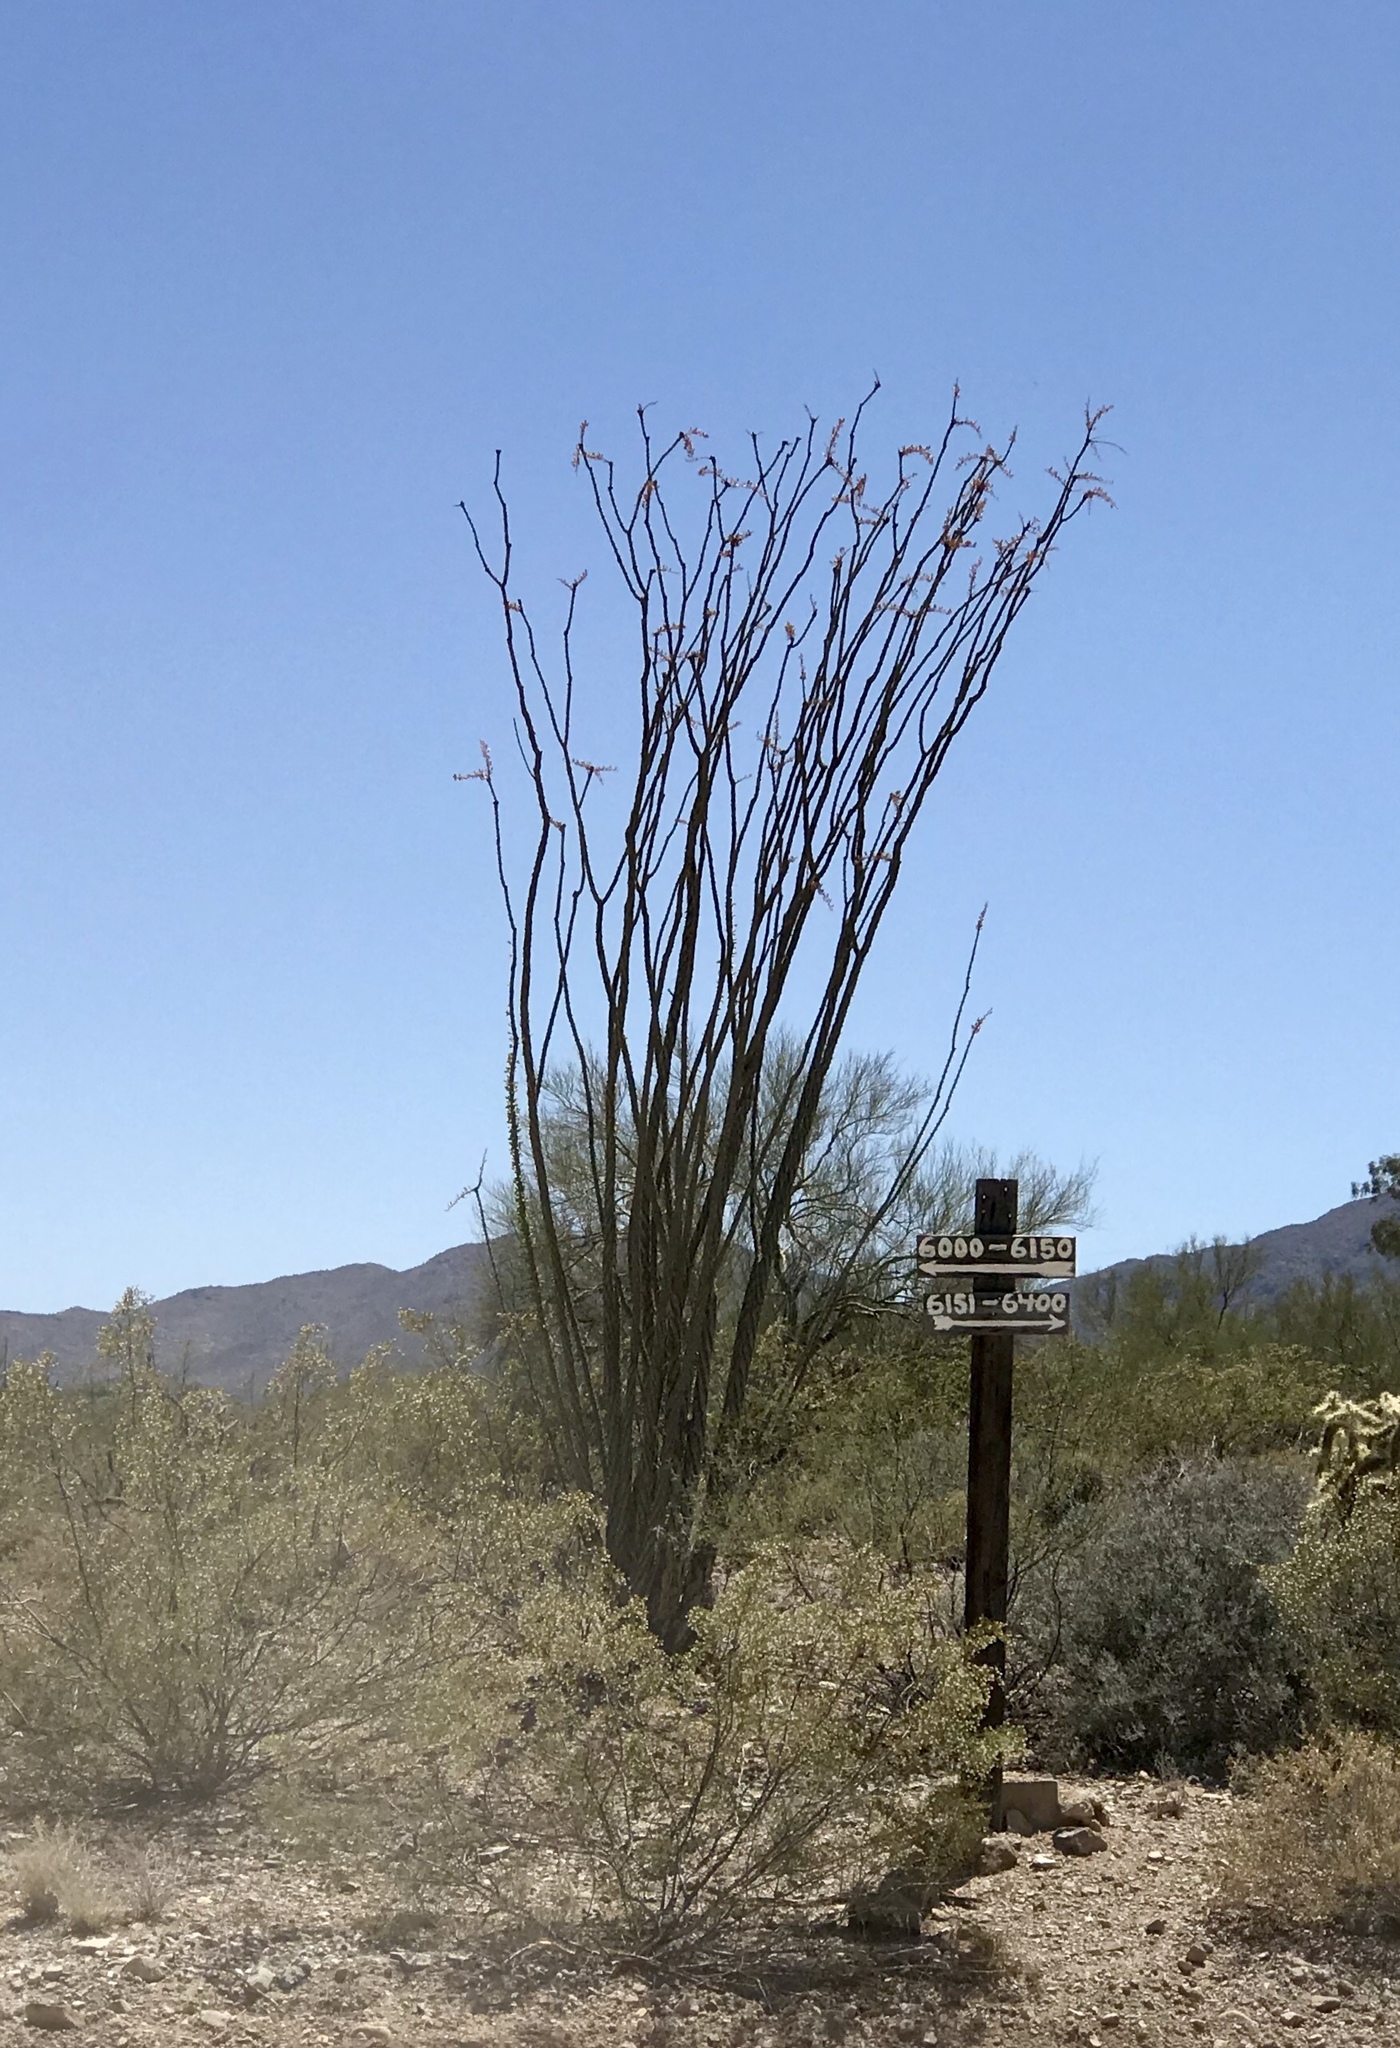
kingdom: Plantae
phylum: Tracheophyta
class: Magnoliopsida
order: Ericales
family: Fouquieriaceae
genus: Fouquieria
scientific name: Fouquieria splendens
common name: Vine-cactus
